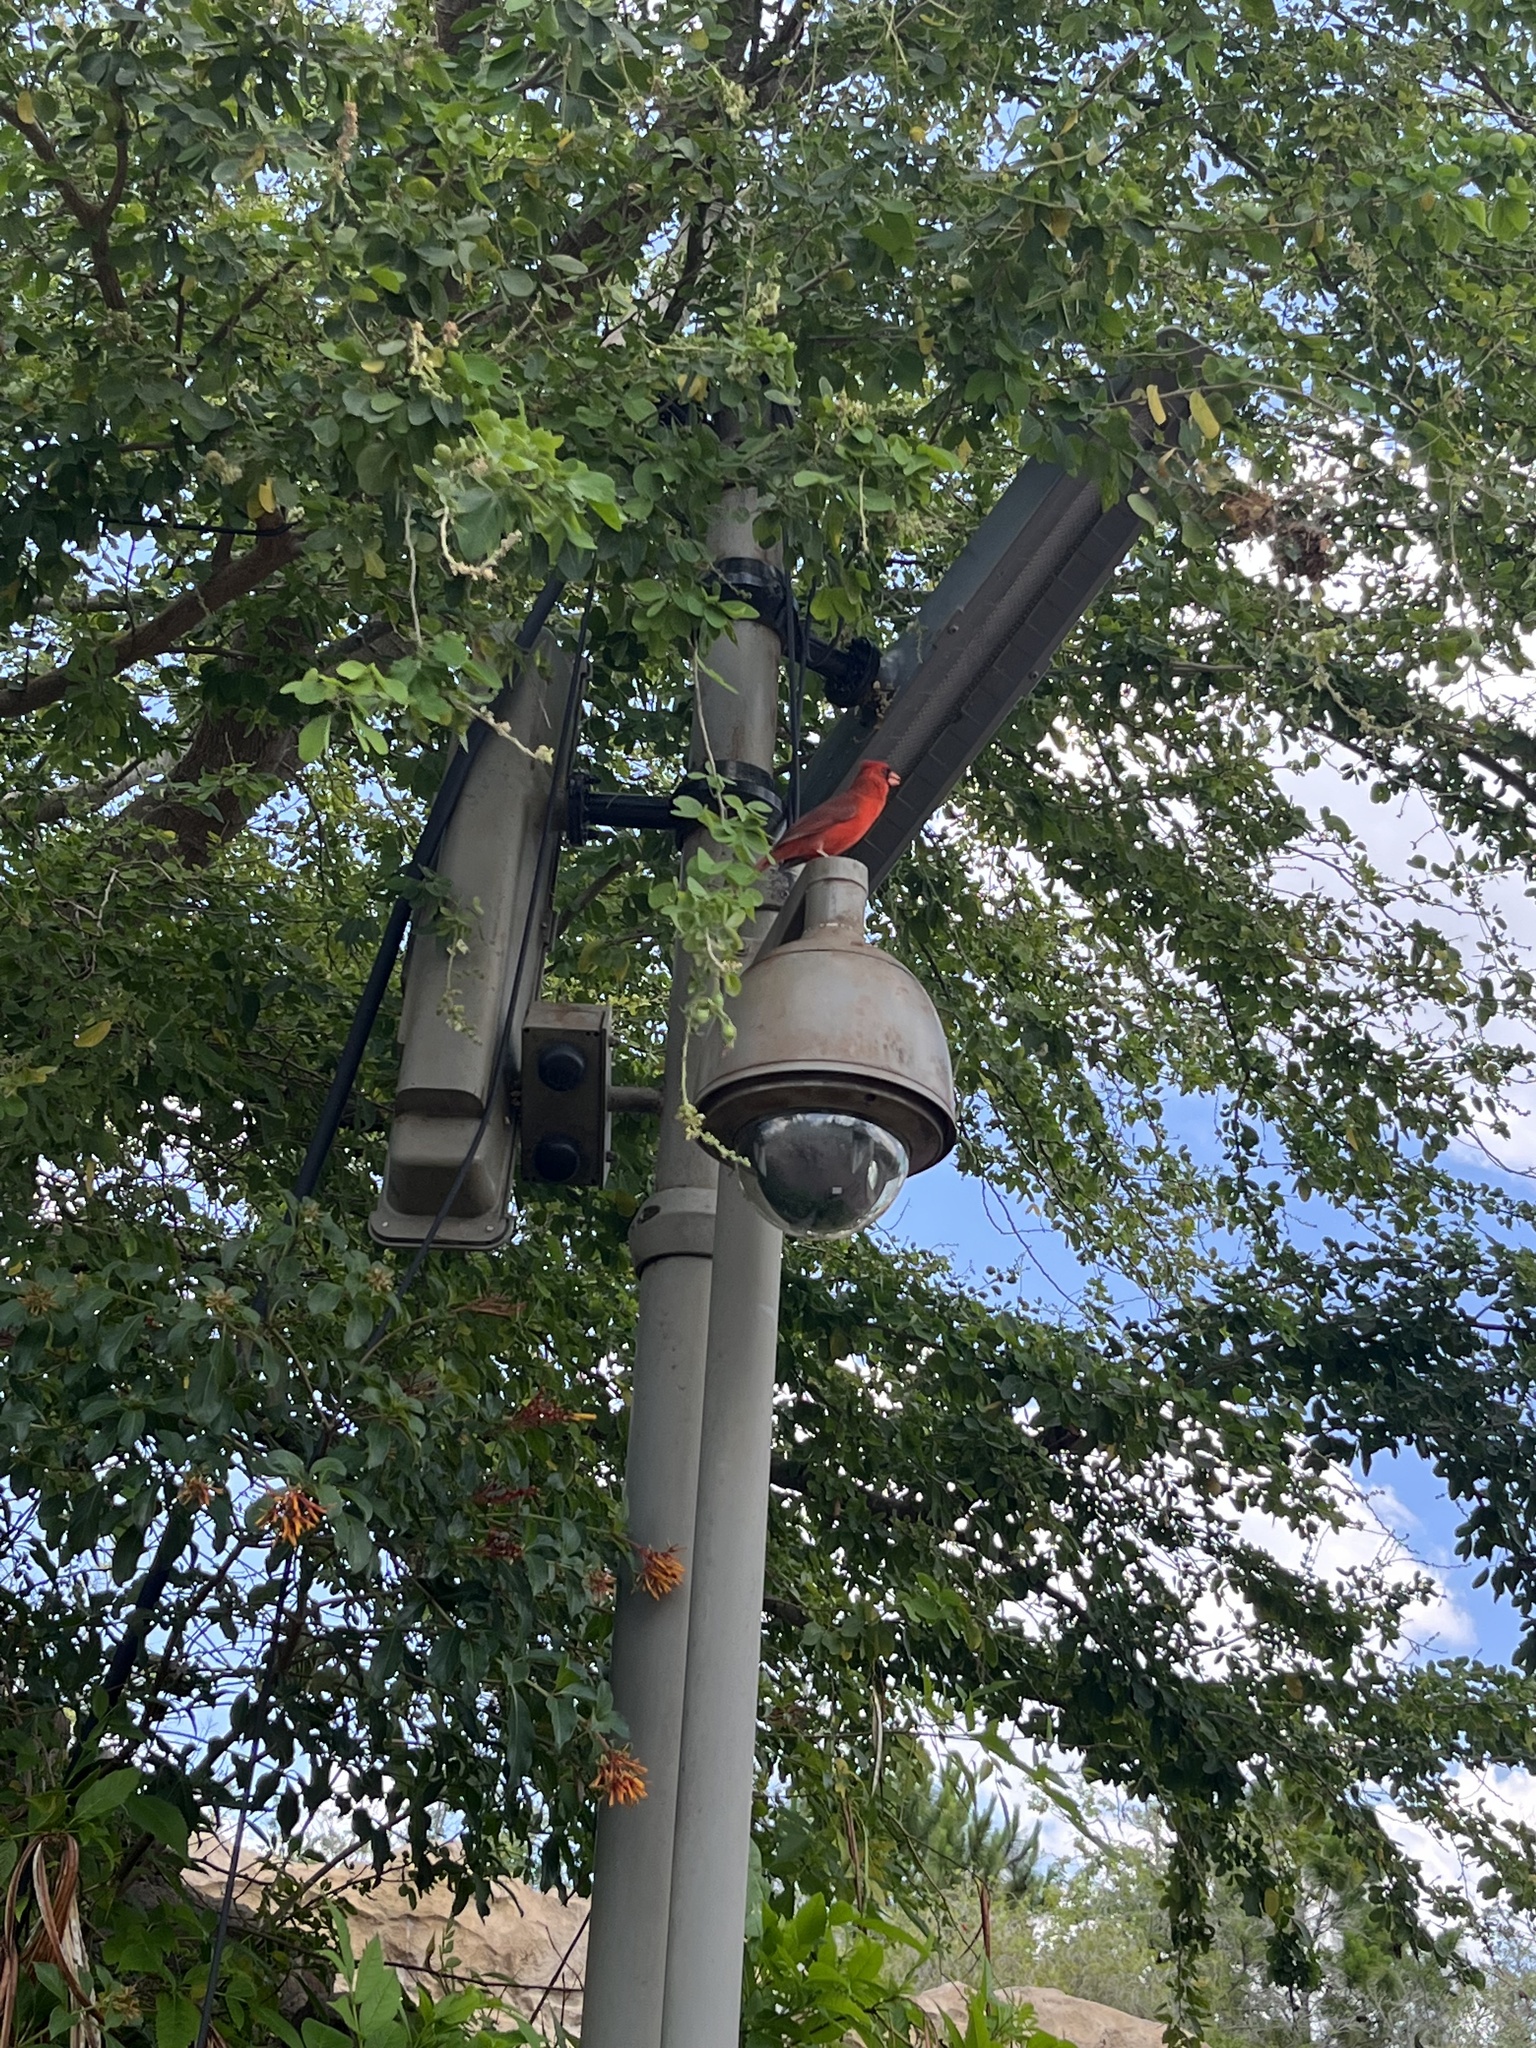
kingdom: Animalia
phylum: Chordata
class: Aves
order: Passeriformes
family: Cardinalidae
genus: Cardinalis
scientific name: Cardinalis cardinalis
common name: Northern cardinal
